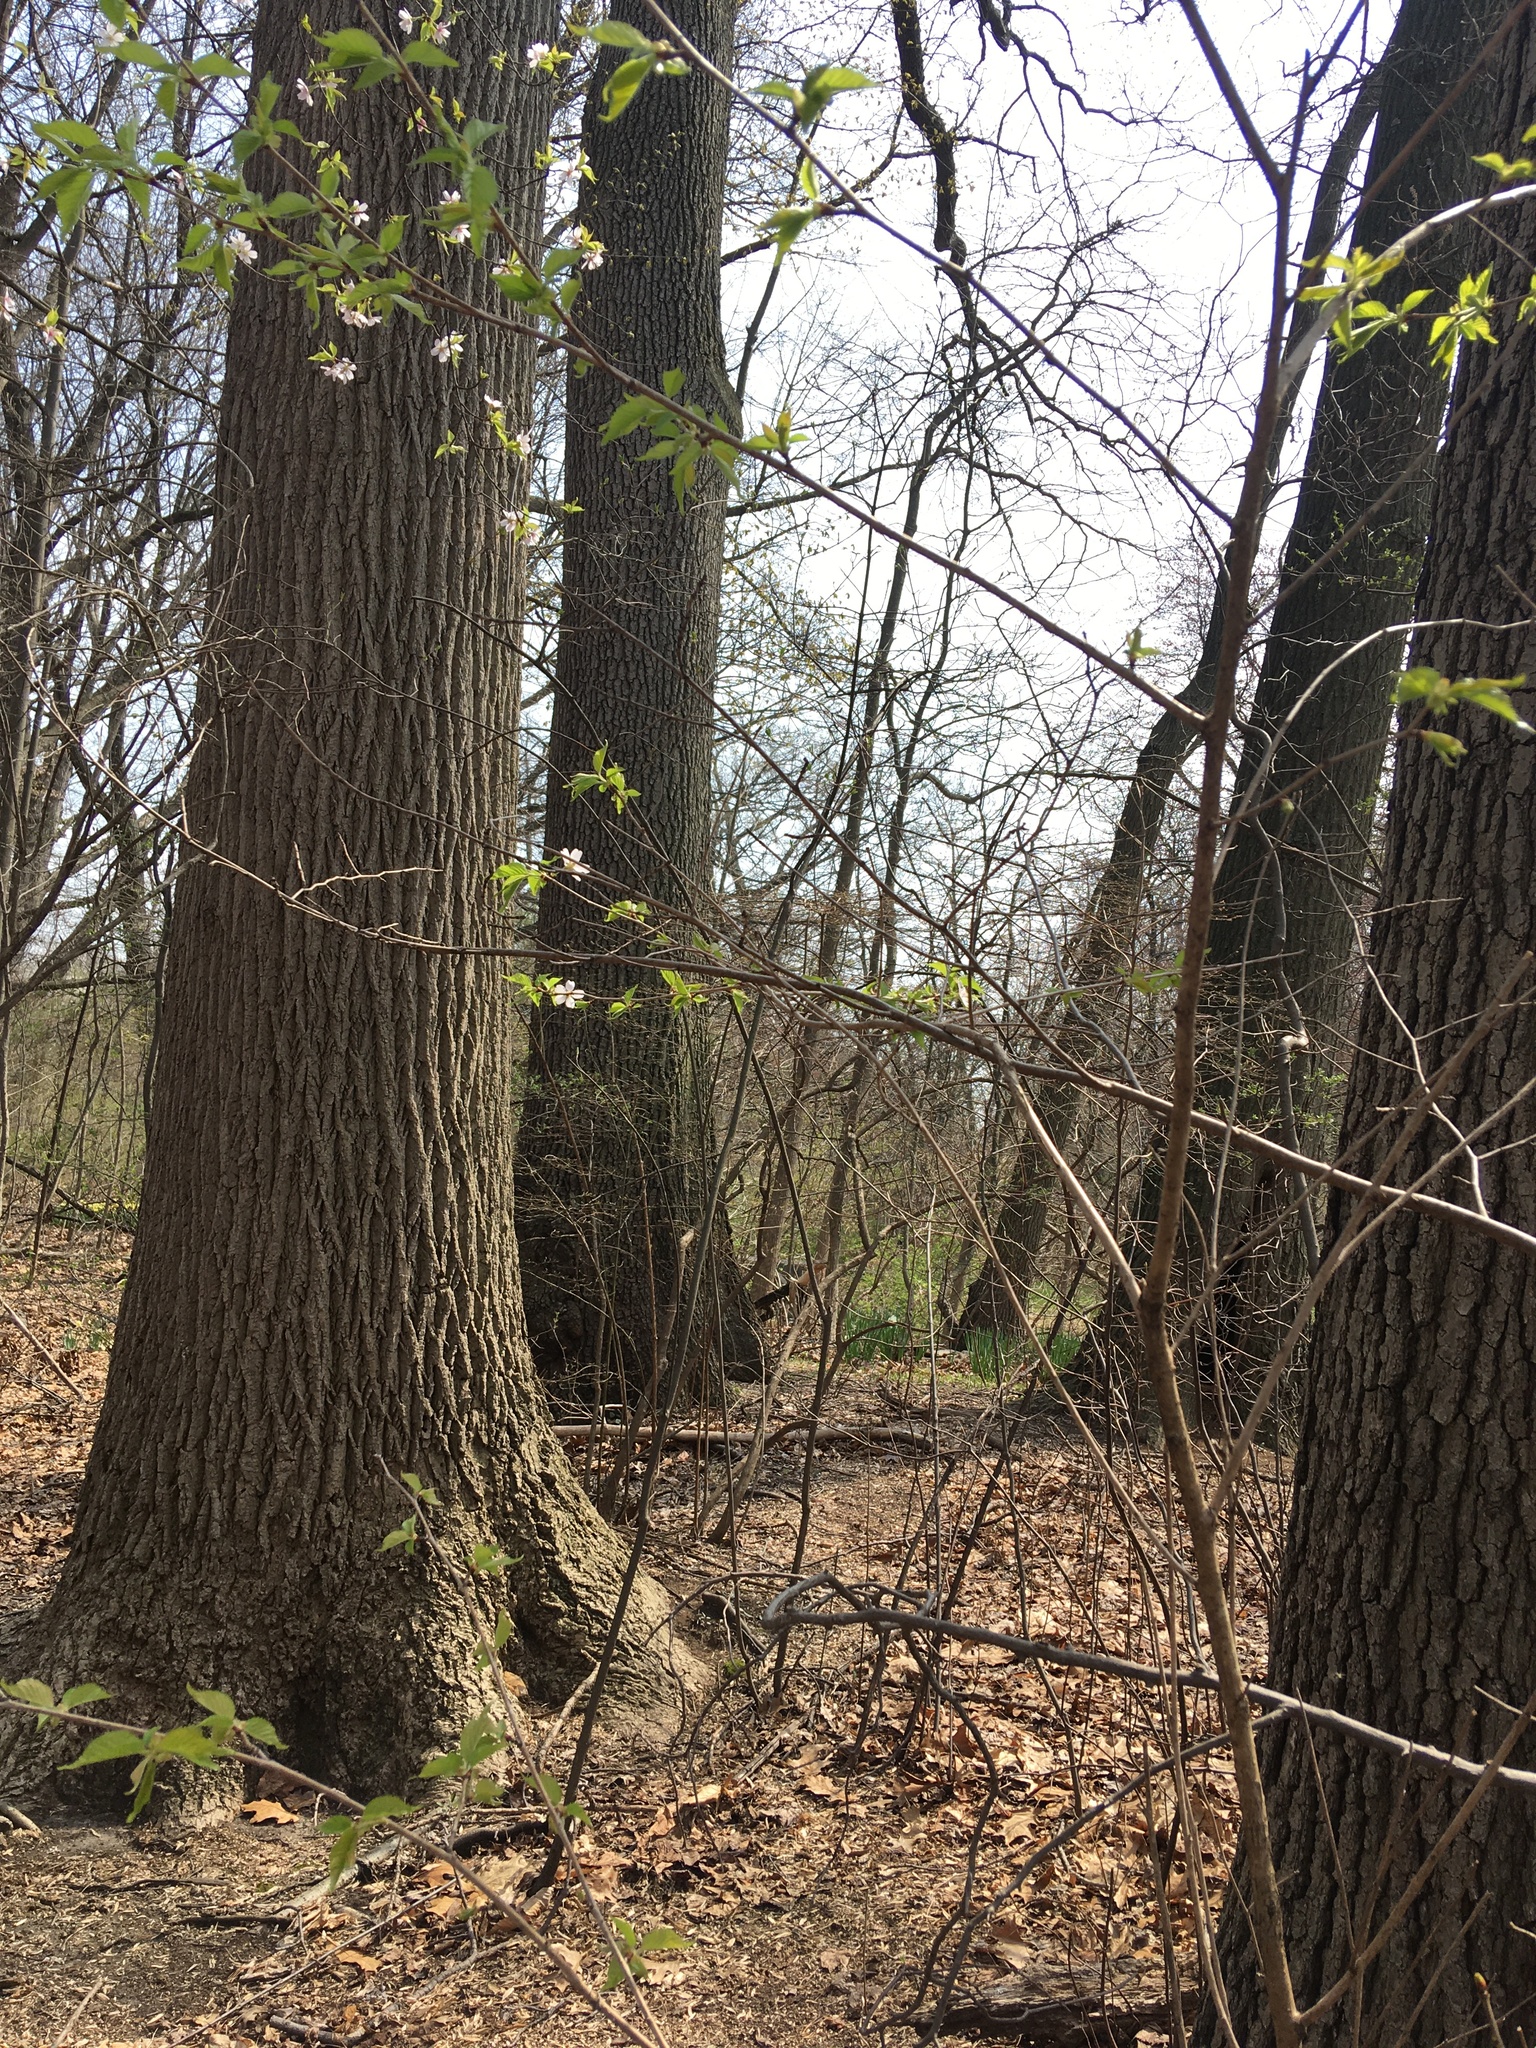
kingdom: Plantae
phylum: Tracheophyta
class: Magnoliopsida
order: Magnoliales
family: Magnoliaceae
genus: Liriodendron
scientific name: Liriodendron tulipifera
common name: Tulip tree
